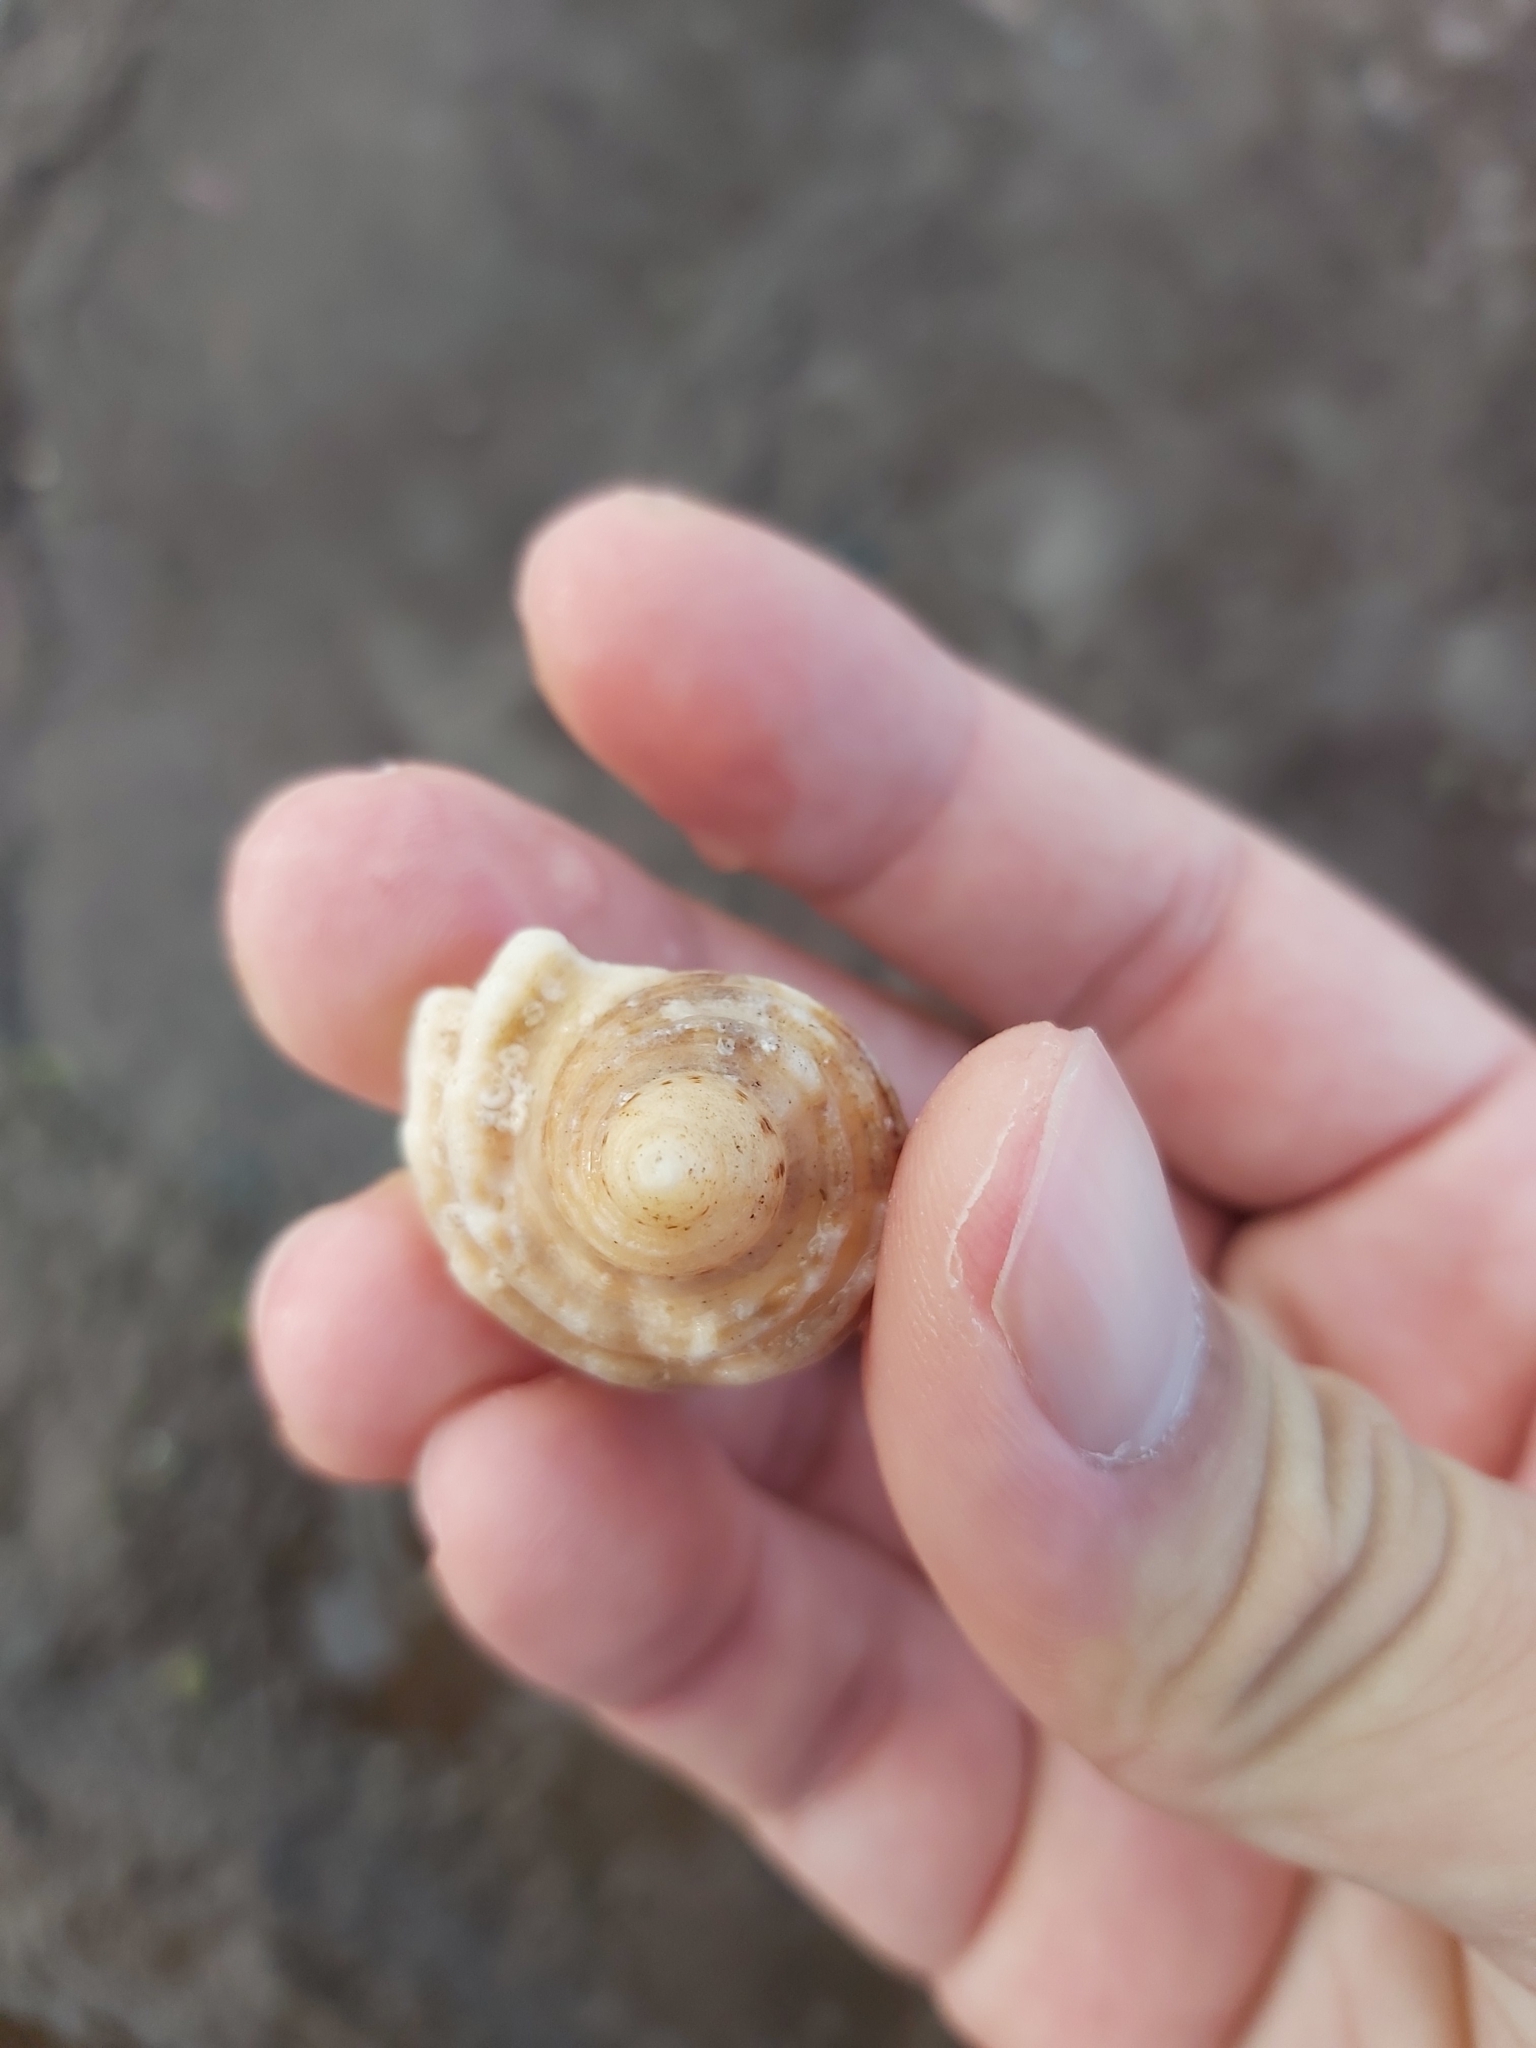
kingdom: Animalia
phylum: Mollusca
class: Gastropoda
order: Neogastropoda
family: Muricidae
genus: Dicathais
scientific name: Dicathais orbita
